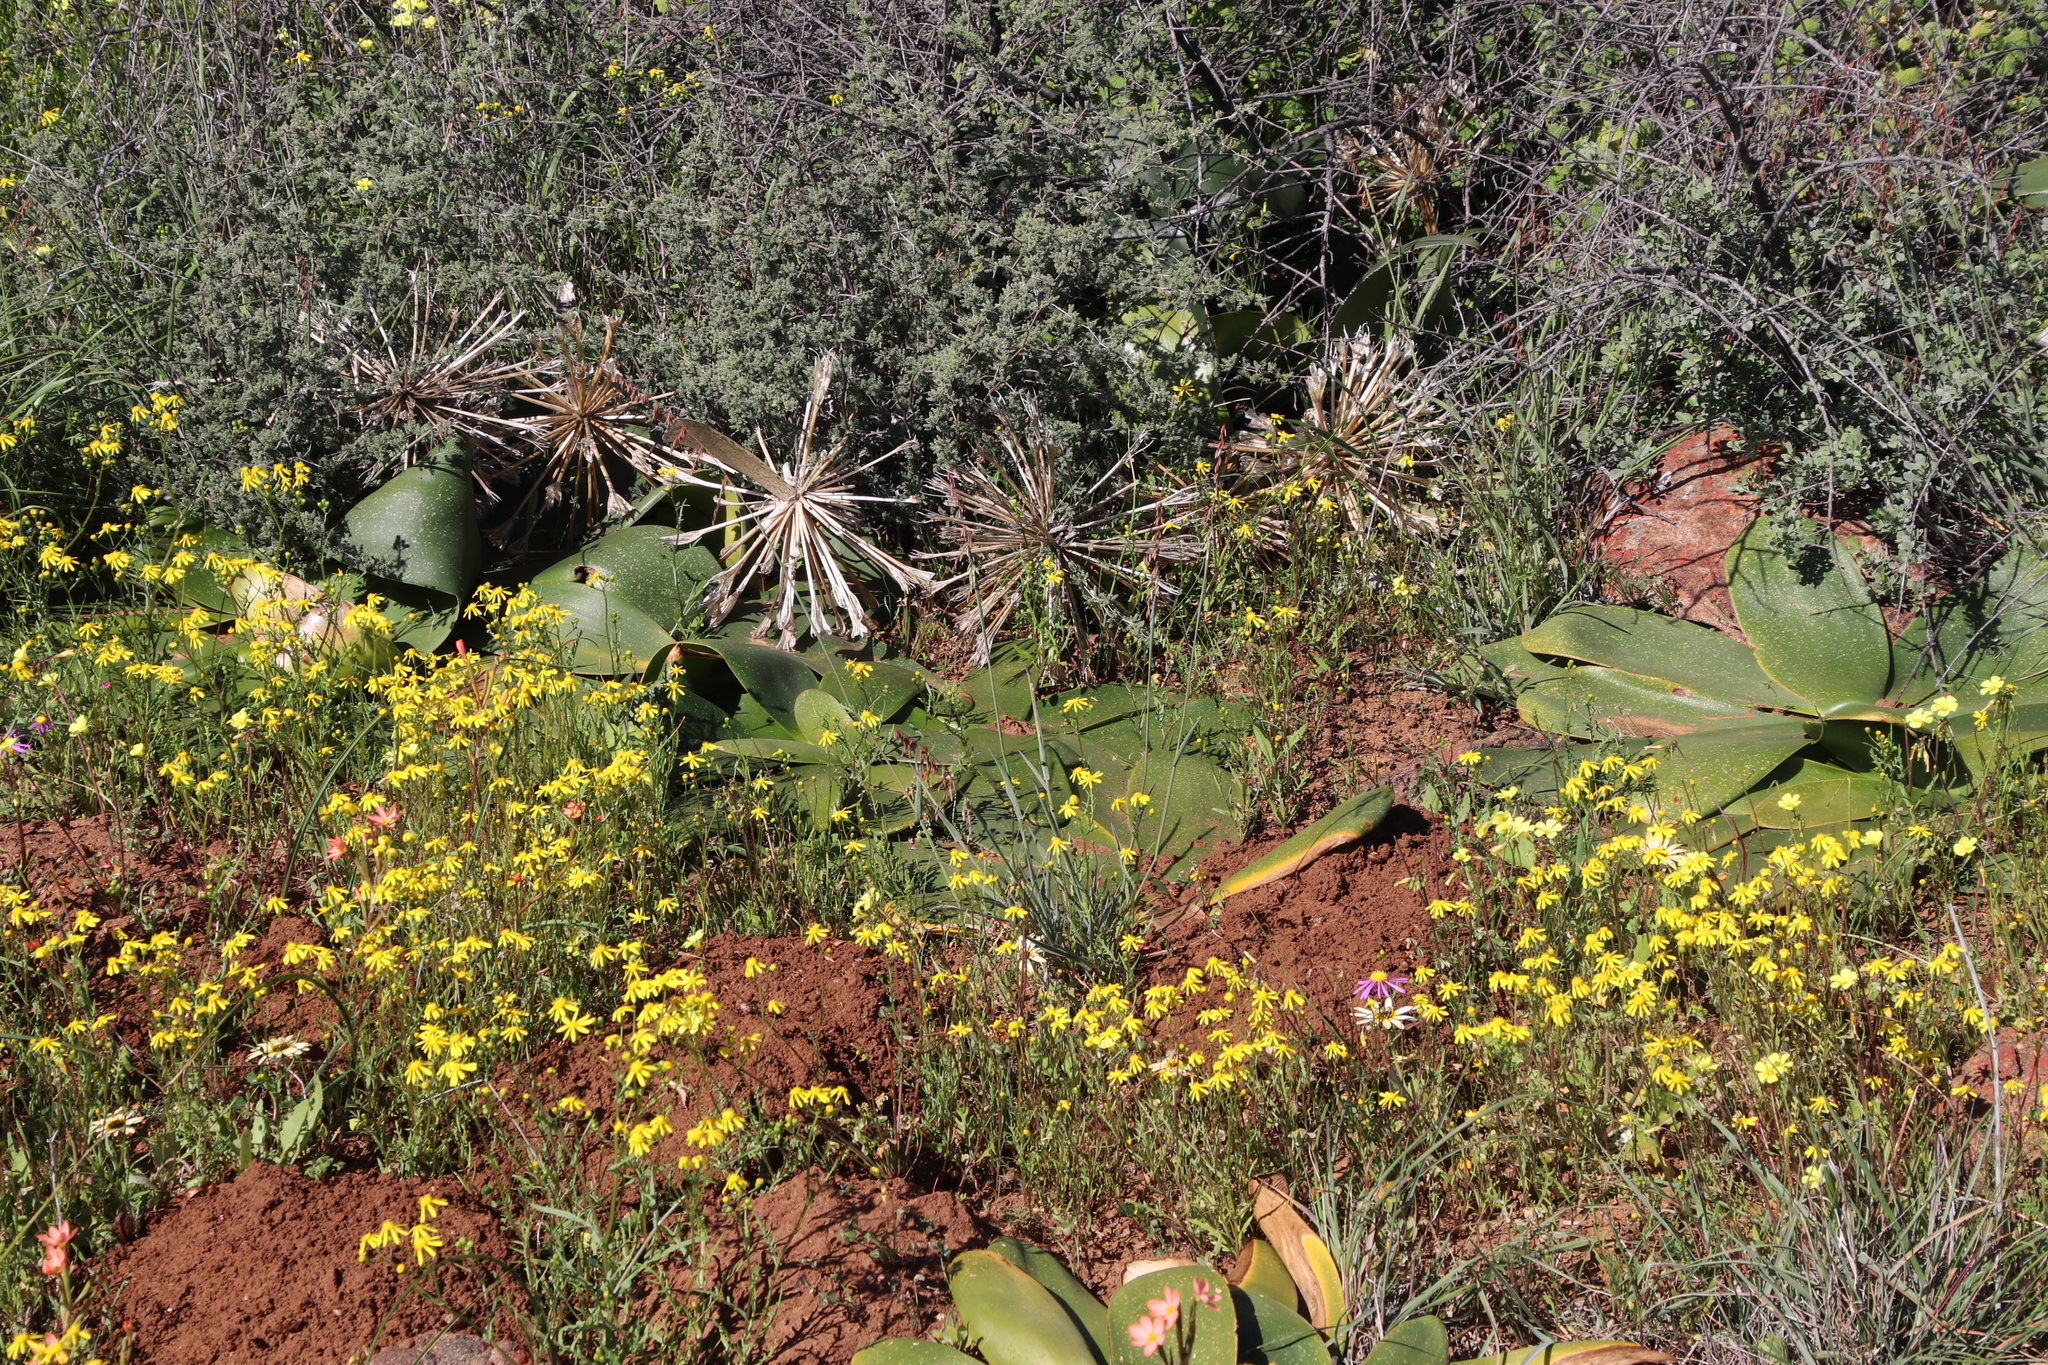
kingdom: Plantae
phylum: Tracheophyta
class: Liliopsida
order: Asparagales
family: Amaryllidaceae
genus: Brunsvigia
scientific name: Brunsvigia bosmaniae
